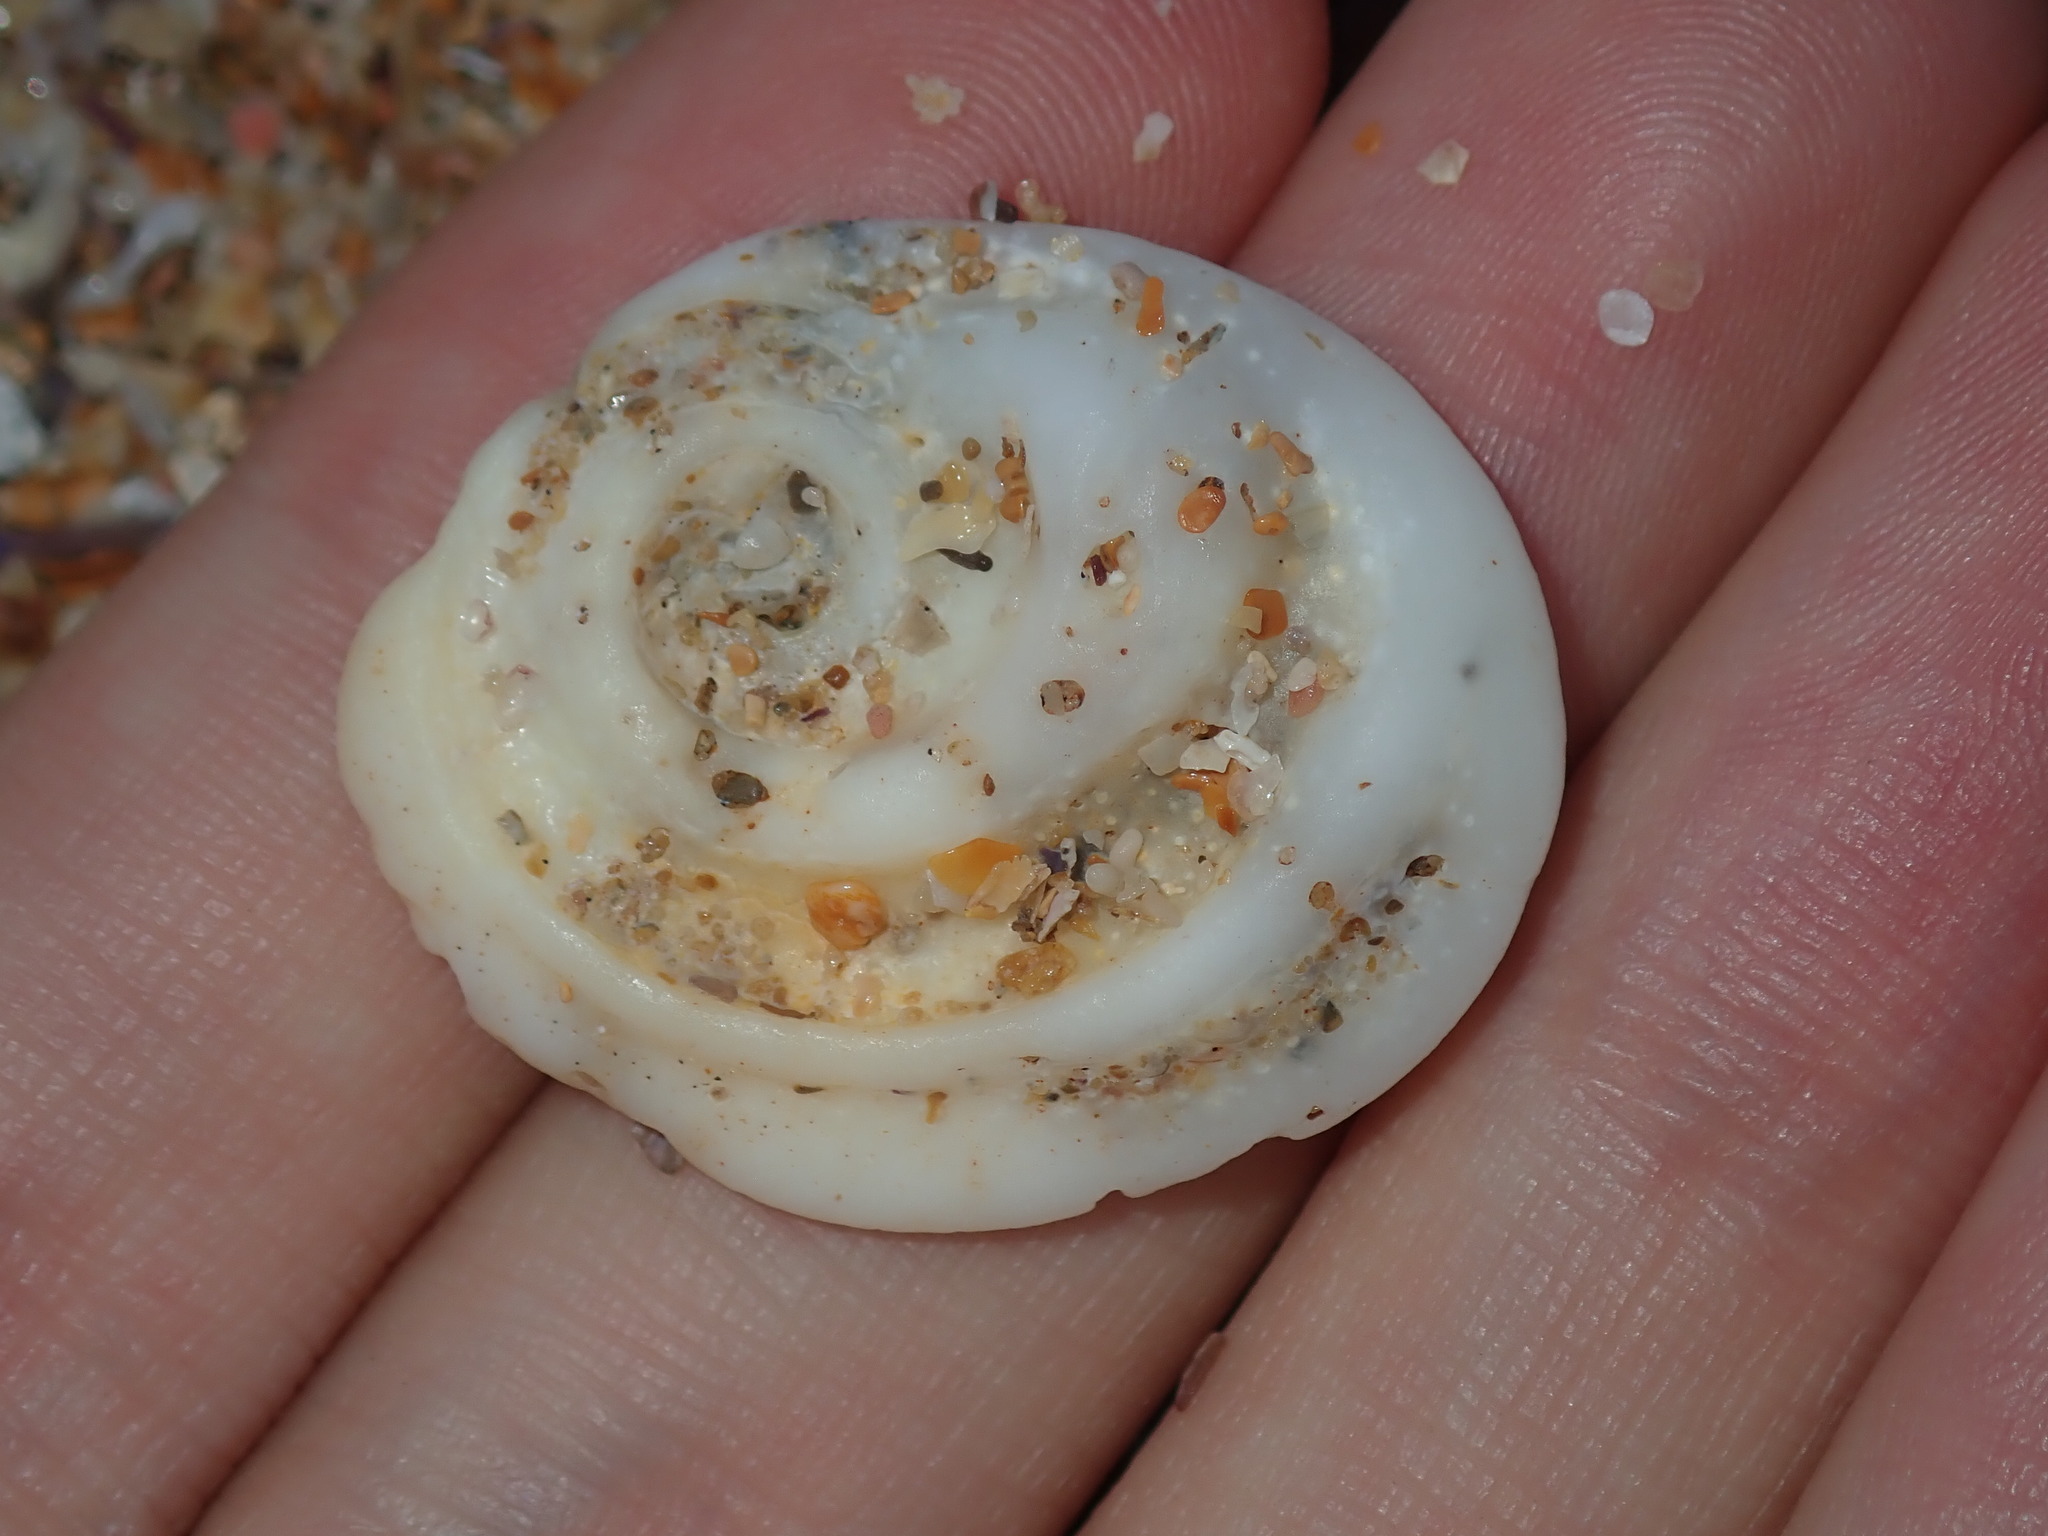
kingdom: Animalia
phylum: Mollusca
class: Gastropoda
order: Trochida
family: Turbinidae
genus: Lunella
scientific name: Lunella torquata
